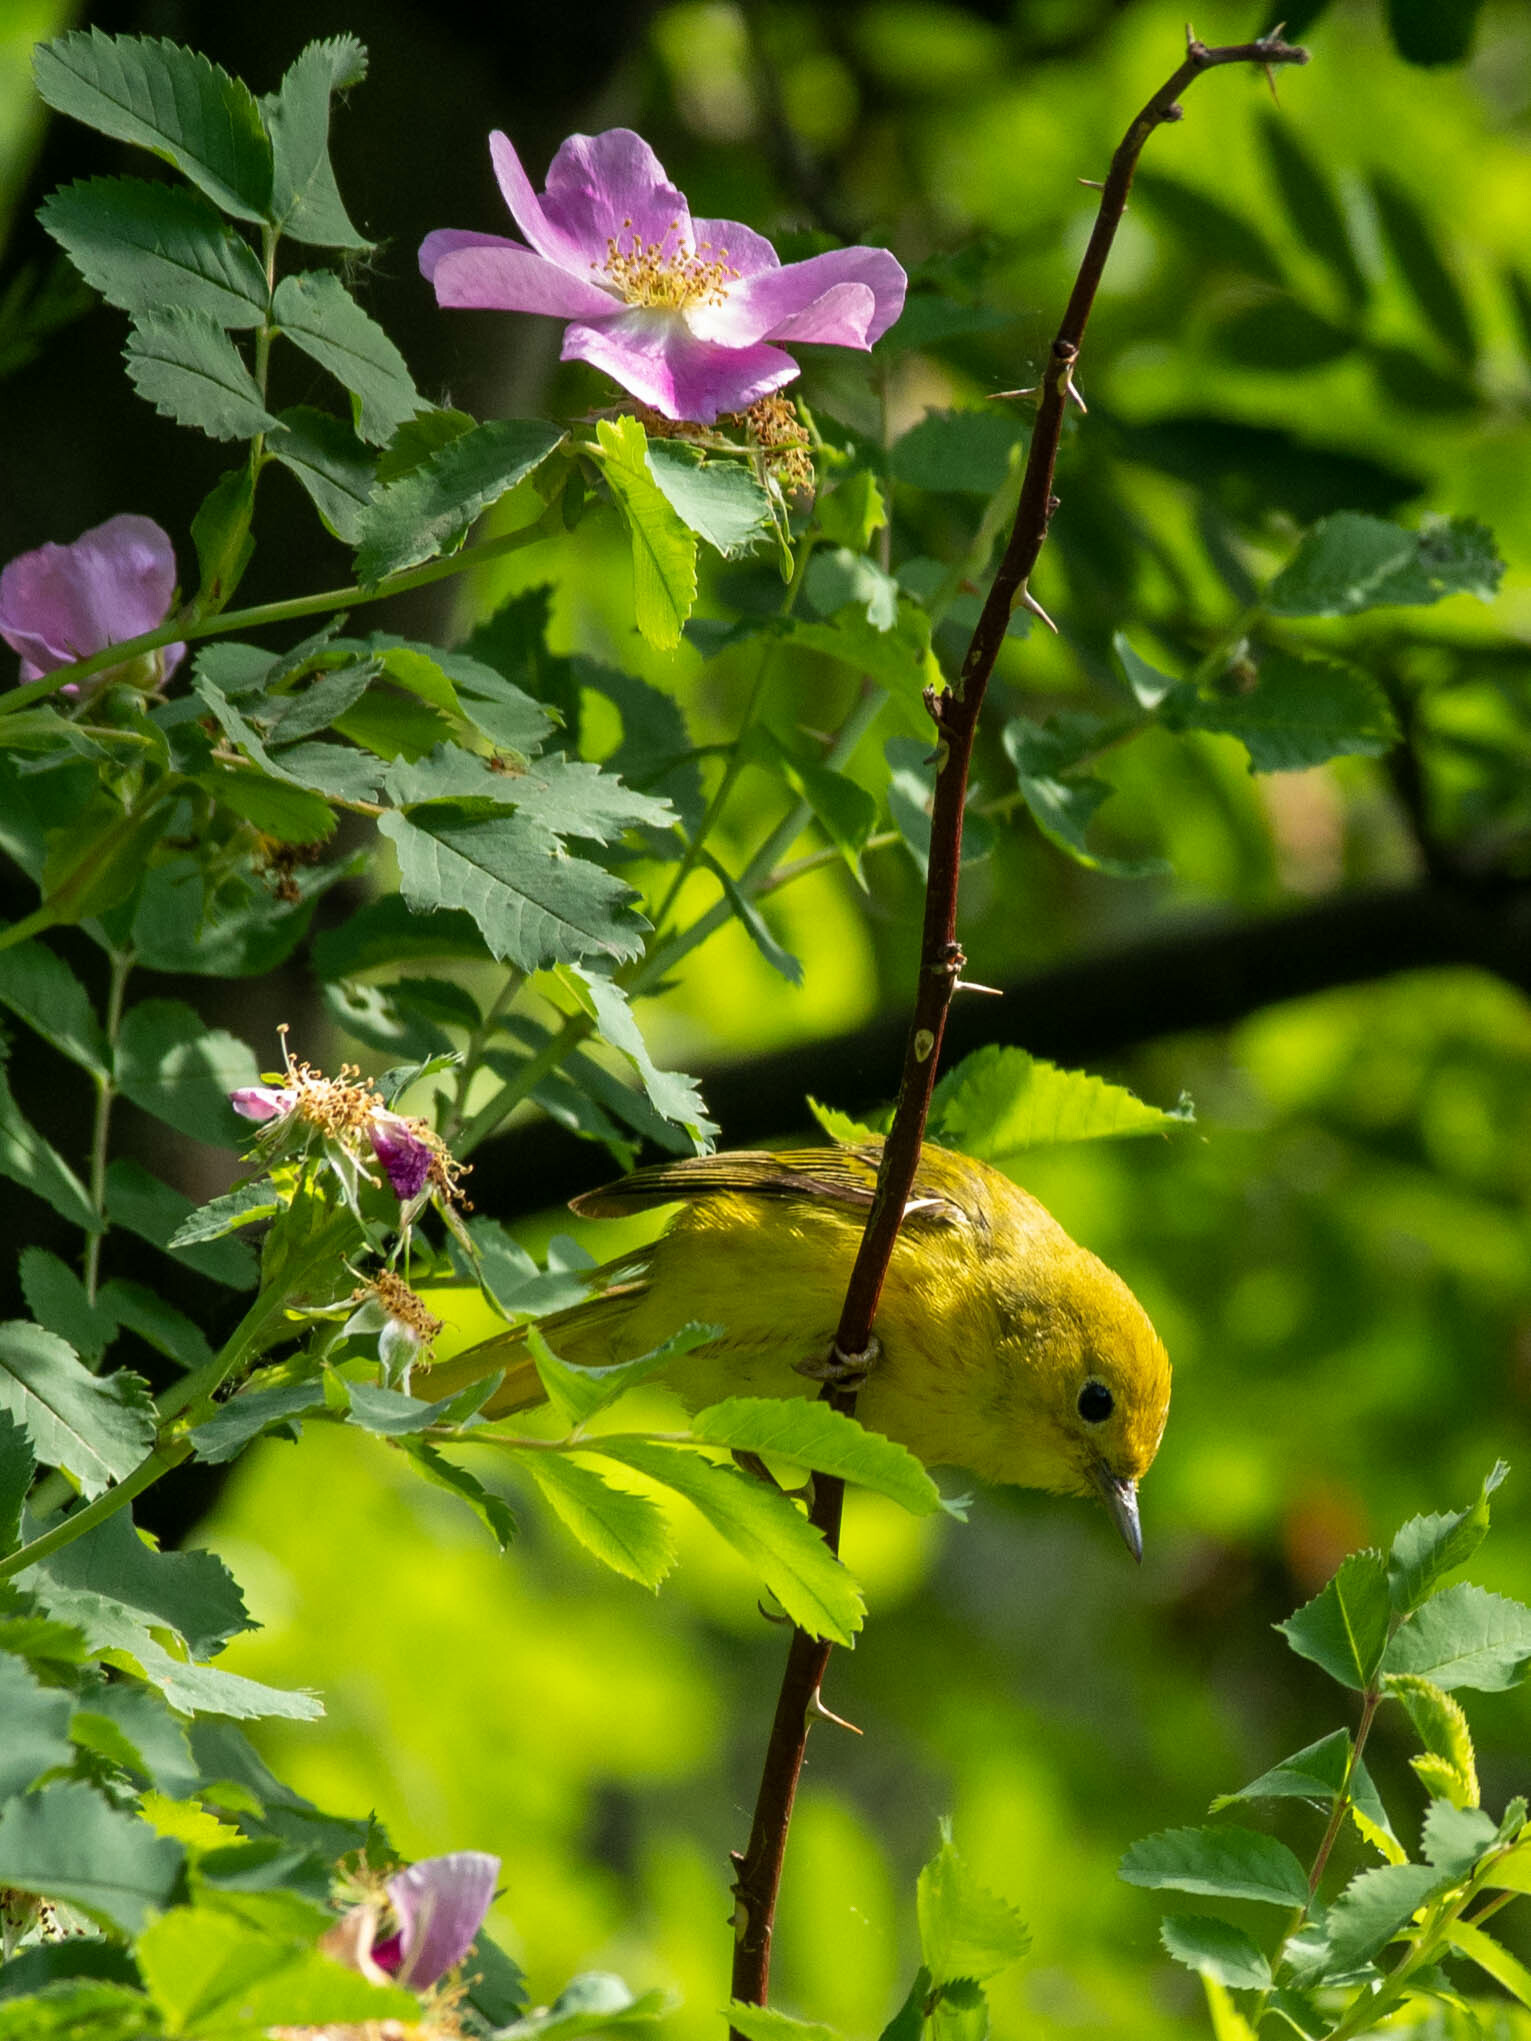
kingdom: Animalia
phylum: Chordata
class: Aves
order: Passeriformes
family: Parulidae
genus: Setophaga
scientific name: Setophaga petechia
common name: Yellow warbler
